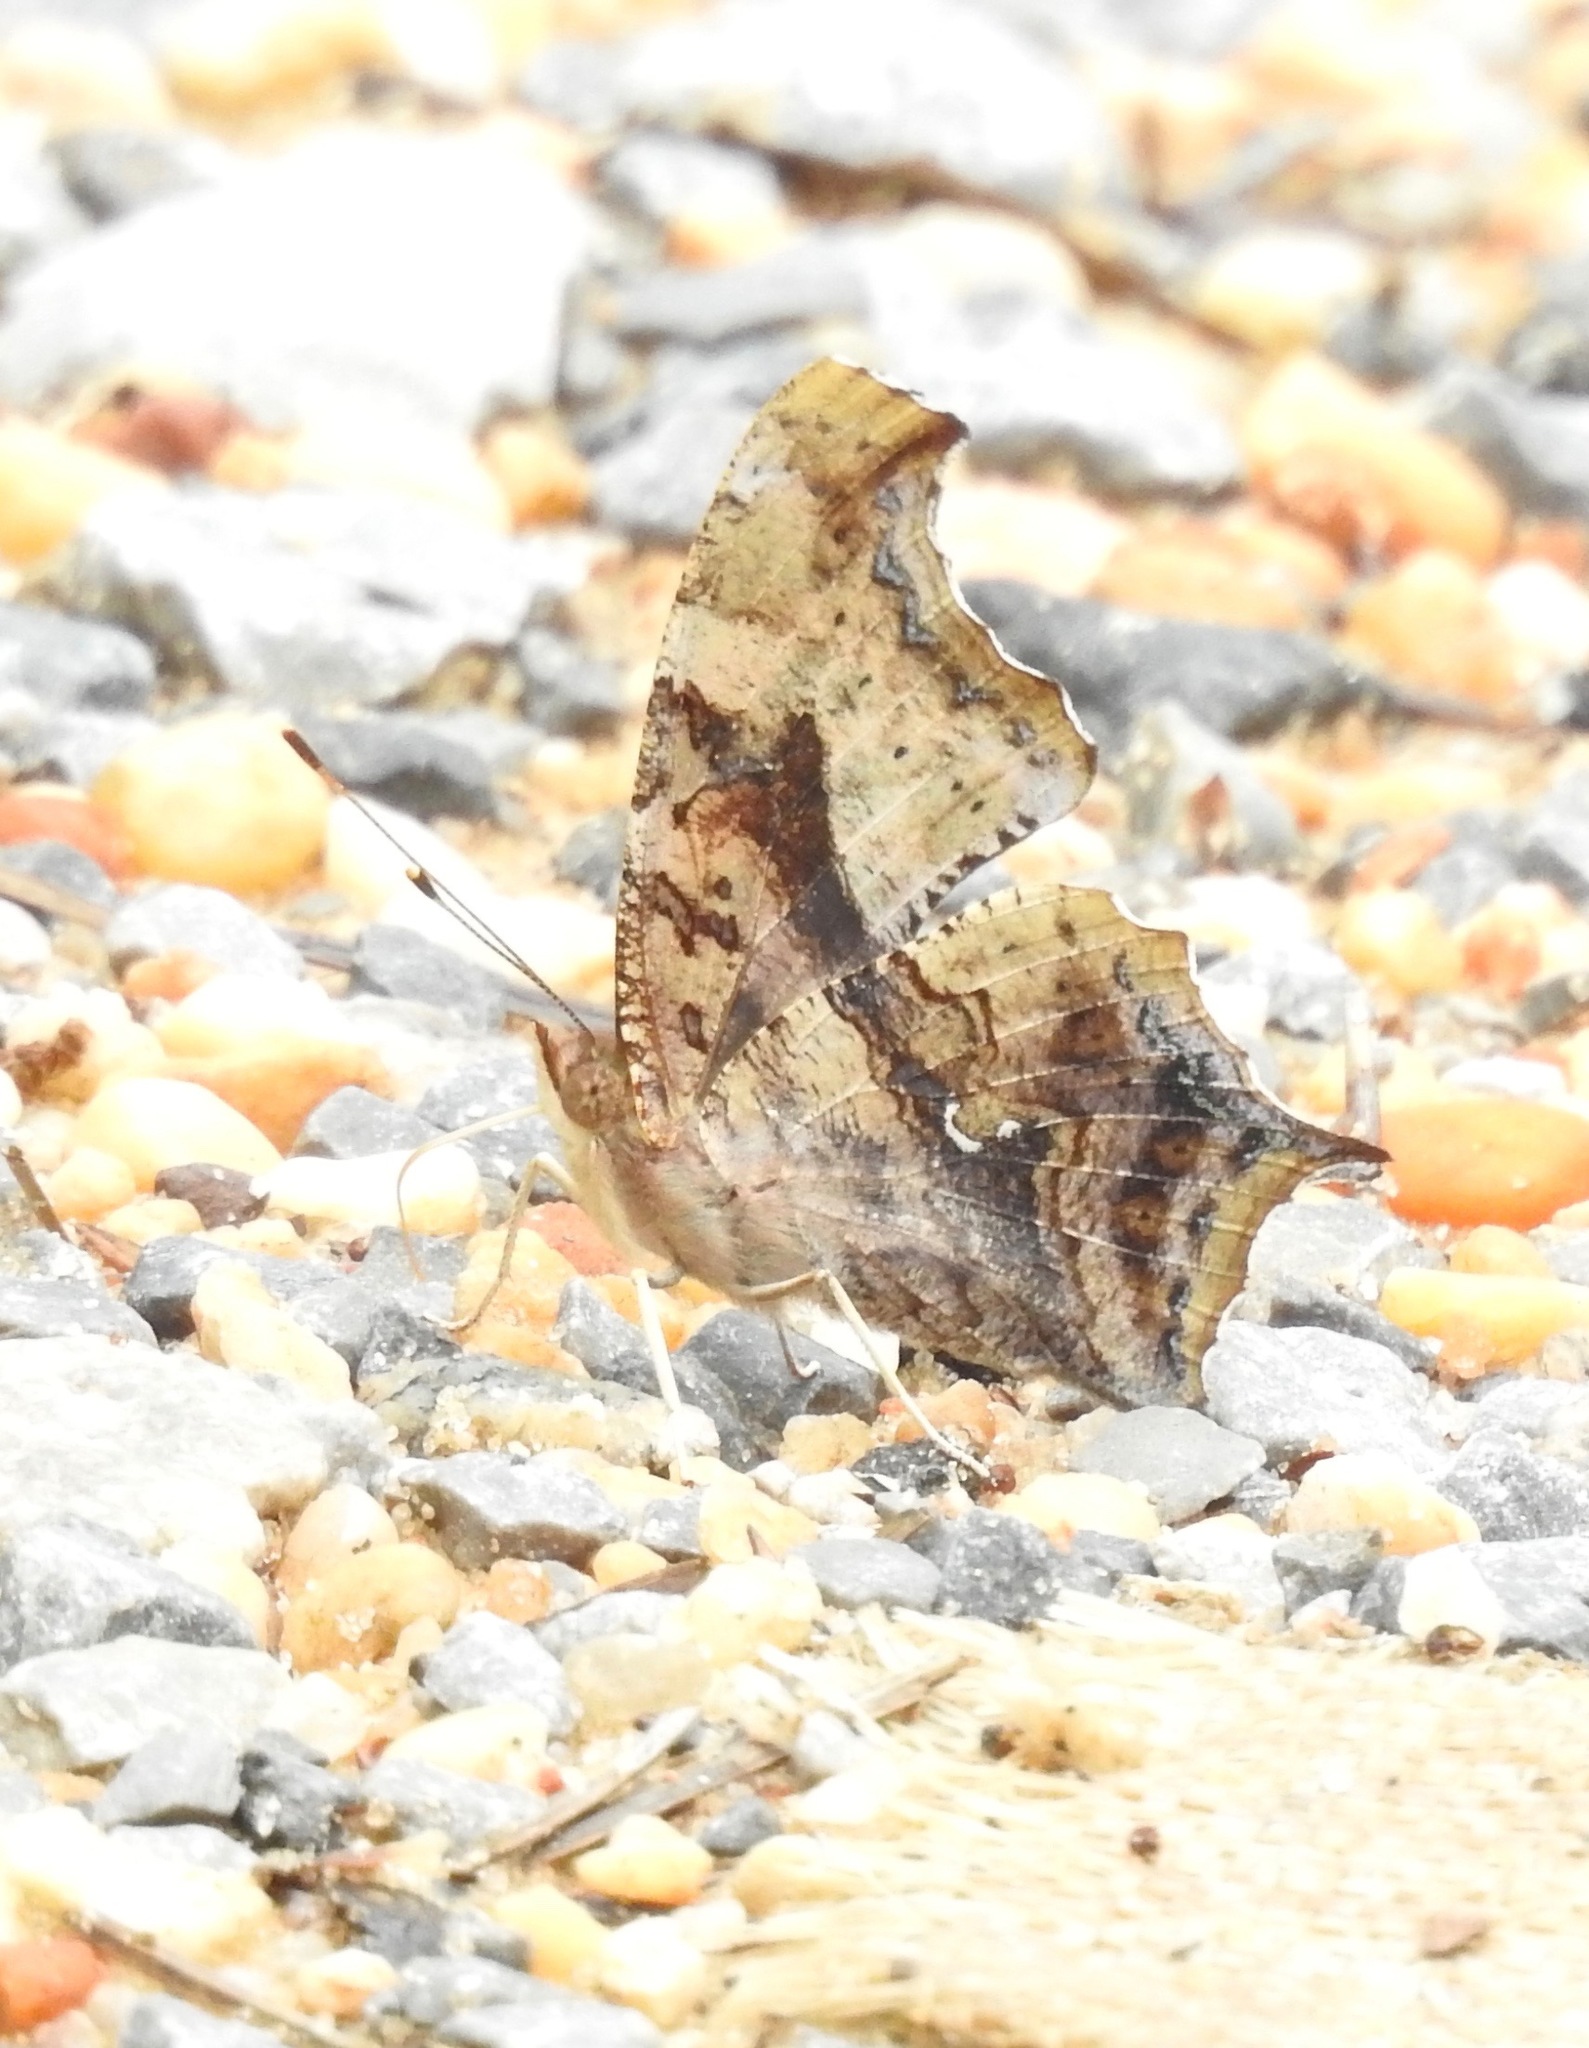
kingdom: Animalia
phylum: Arthropoda
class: Insecta
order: Lepidoptera
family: Nymphalidae
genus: Polygonia
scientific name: Polygonia interrogationis
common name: Question mark
